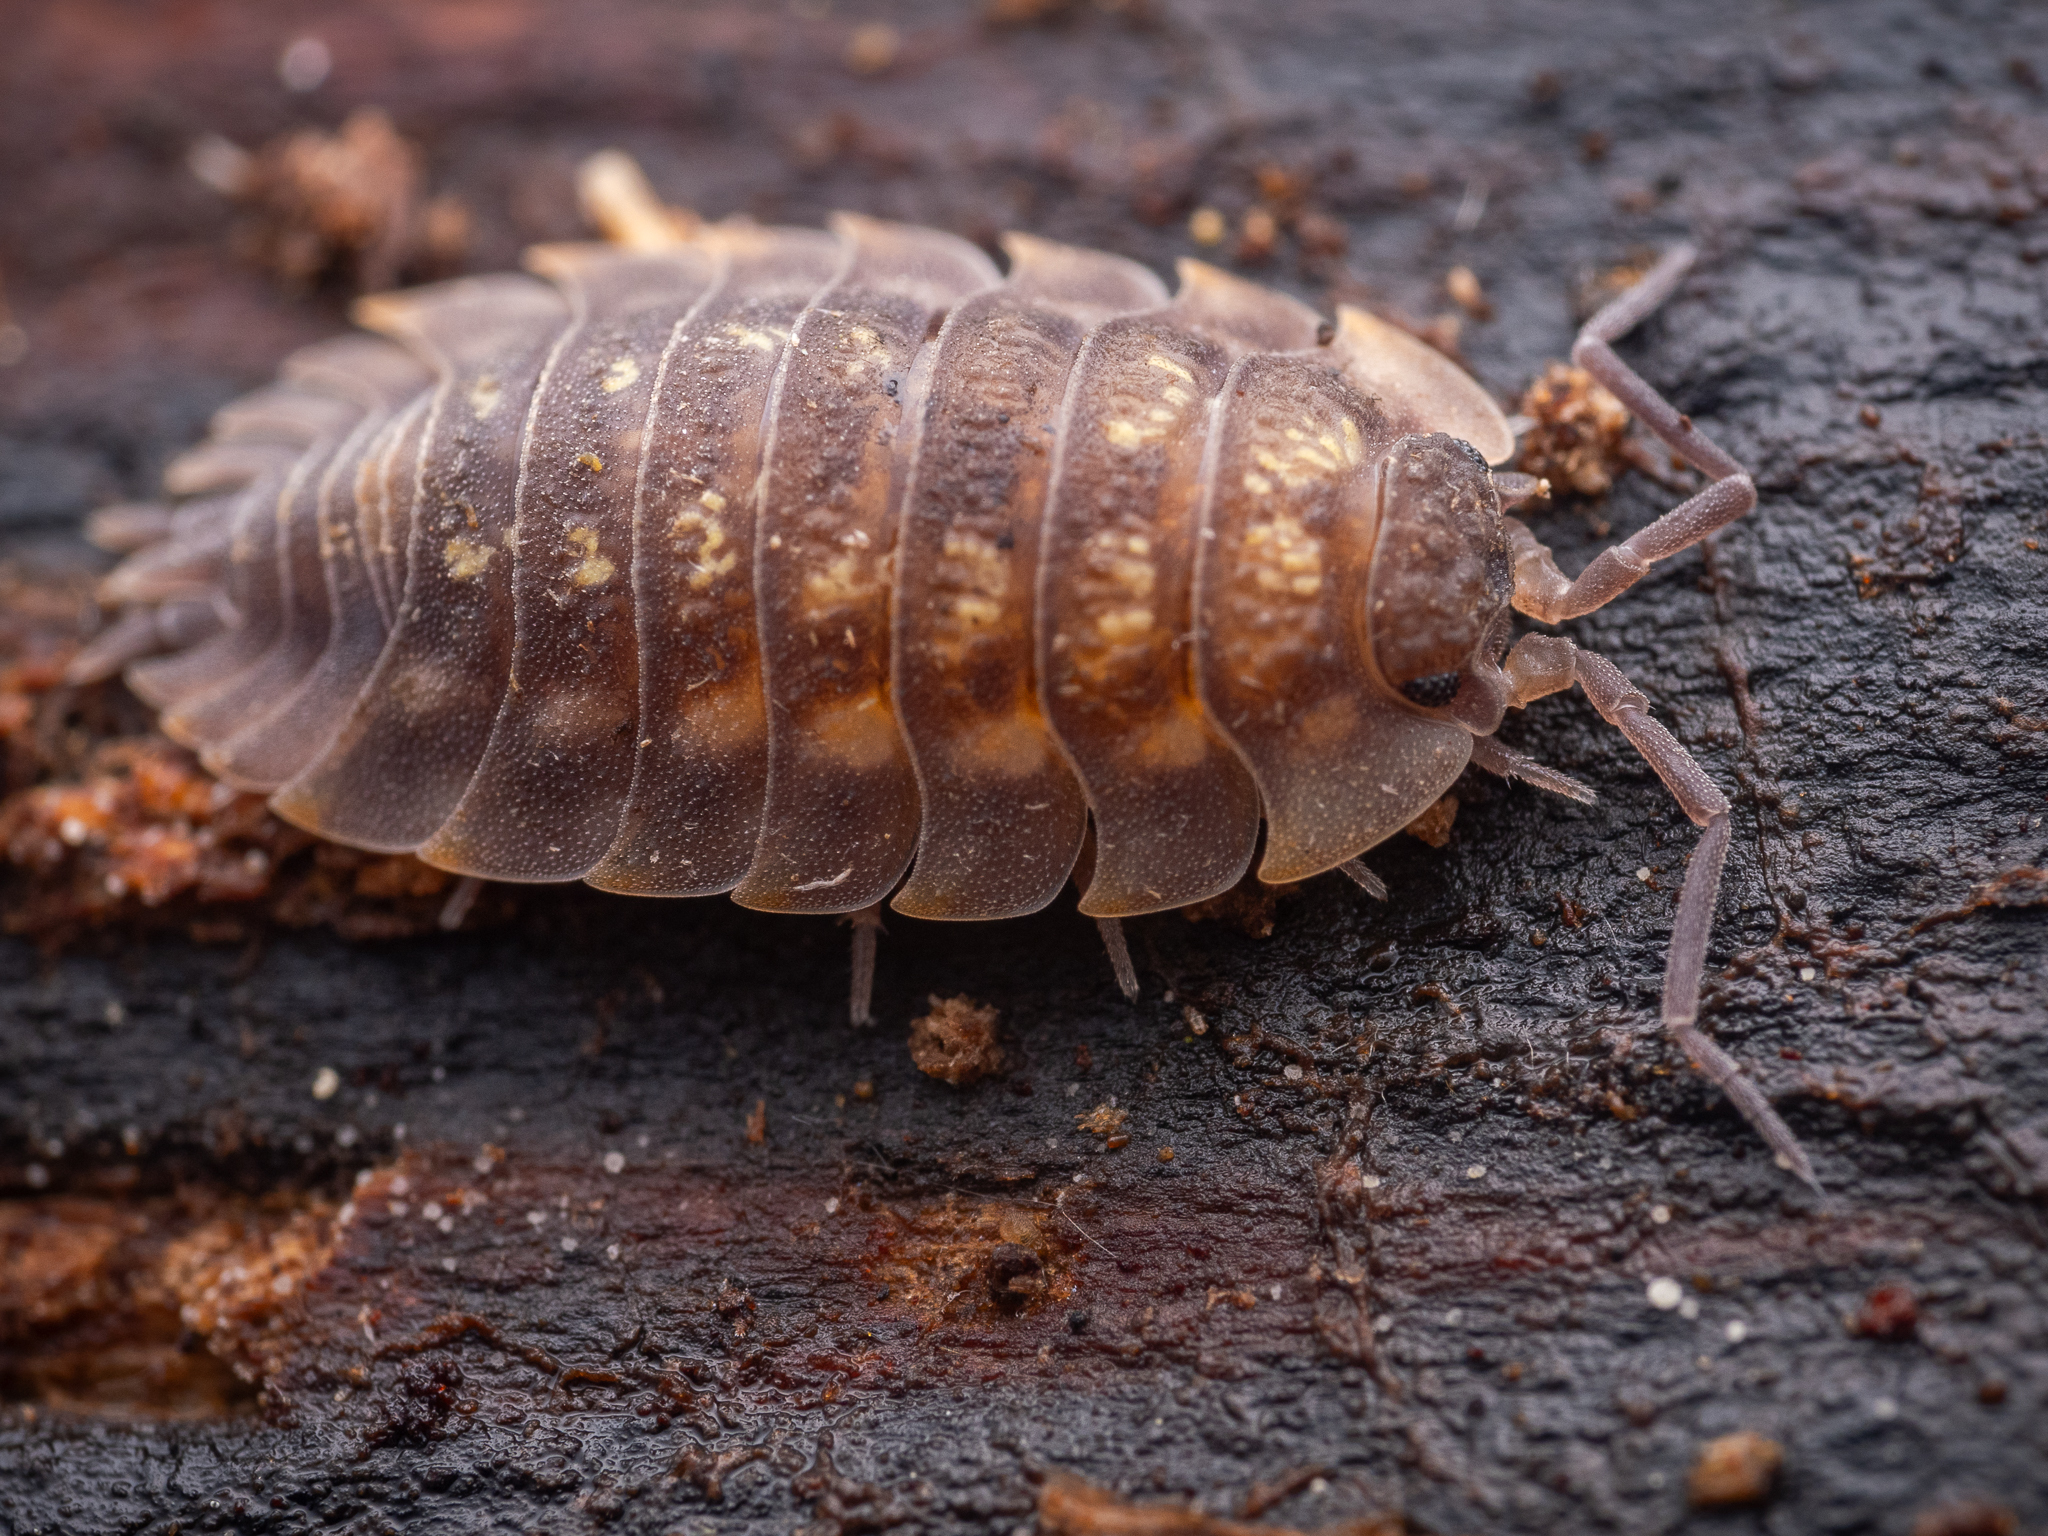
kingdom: Animalia
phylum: Arthropoda
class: Malacostraca
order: Isopoda
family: Oniscidae
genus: Oniscus
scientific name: Oniscus asellus
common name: Common shiny woodlouse
